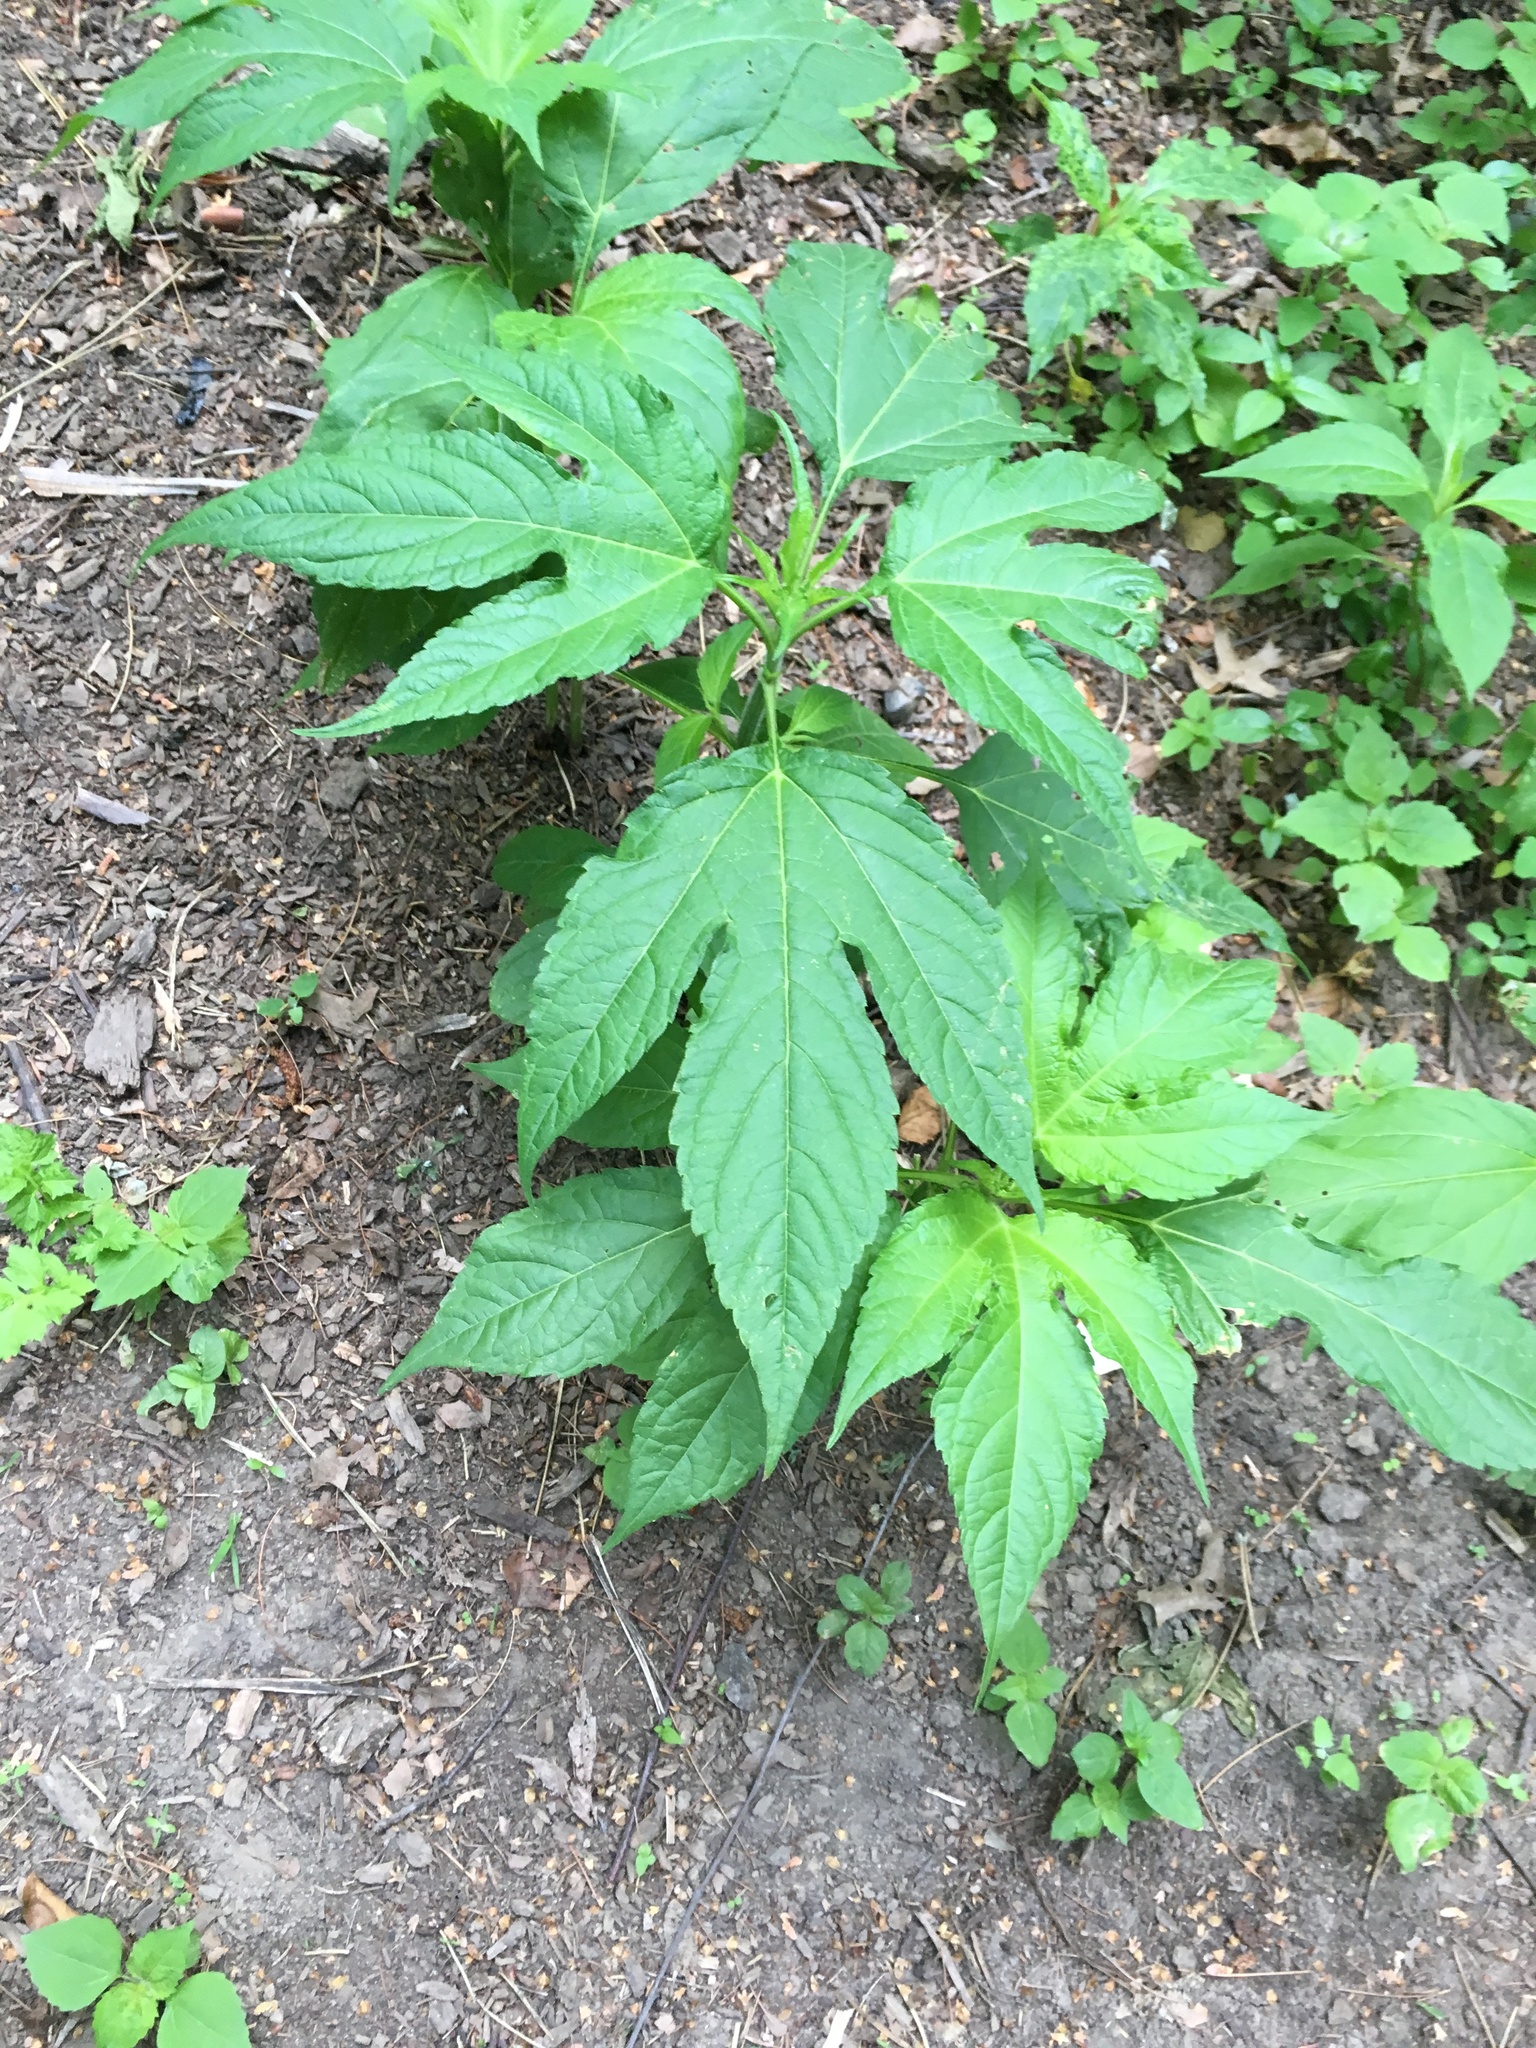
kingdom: Plantae
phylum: Tracheophyta
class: Magnoliopsida
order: Asterales
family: Asteraceae
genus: Ambrosia
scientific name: Ambrosia trifida
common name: Giant ragweed
